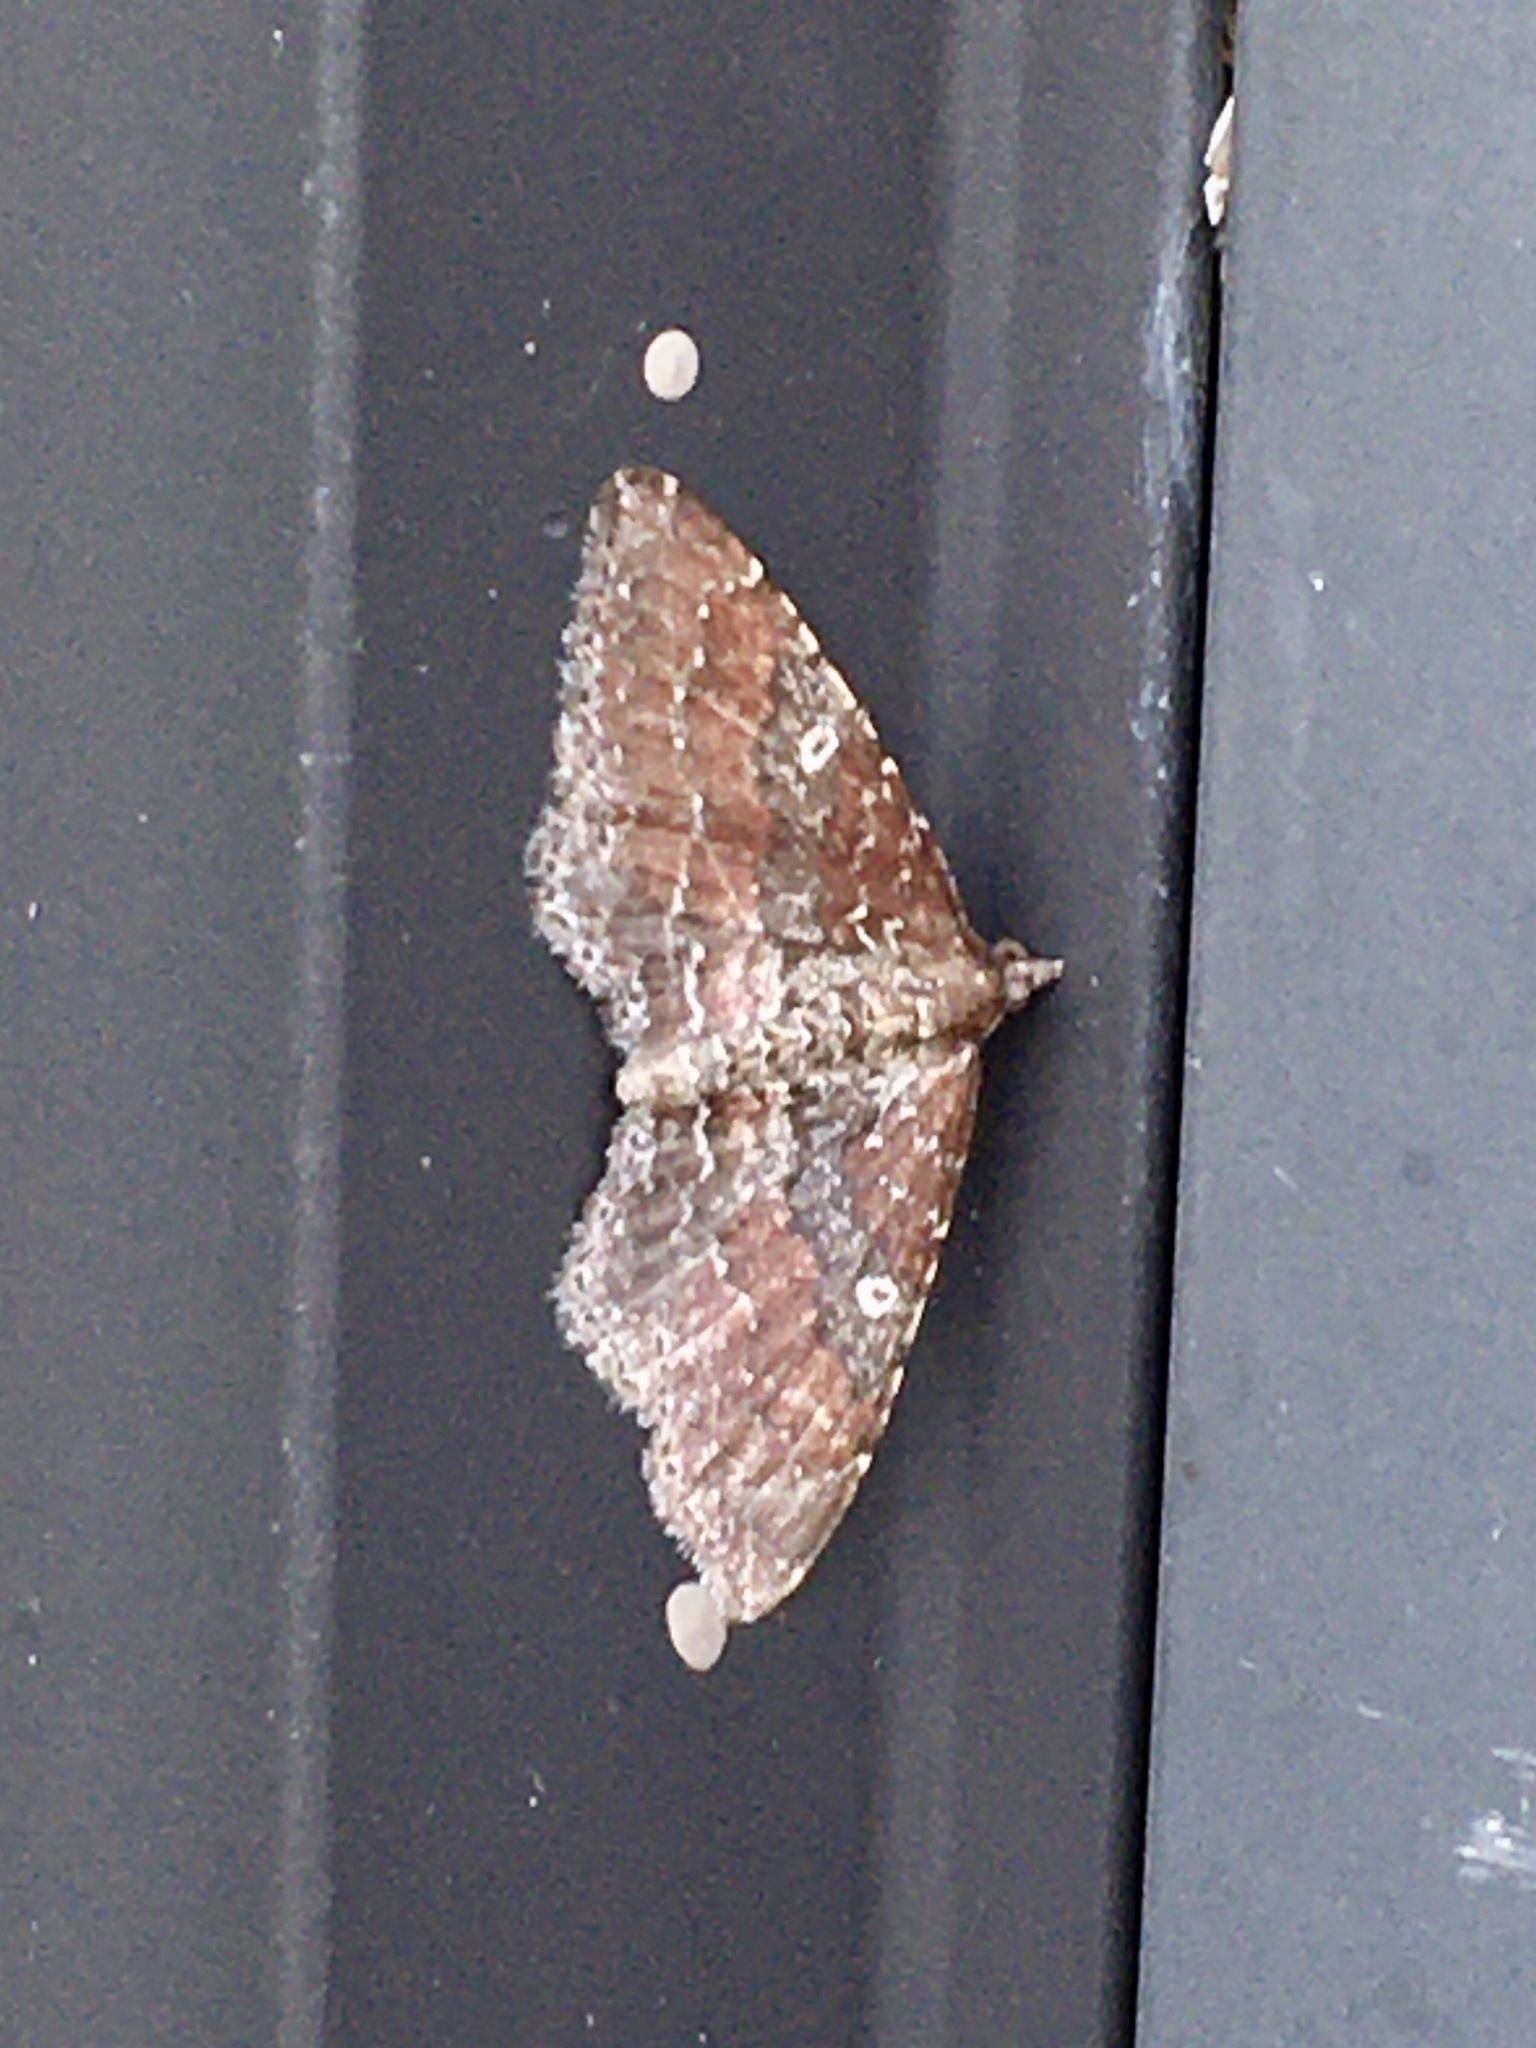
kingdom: Animalia
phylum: Arthropoda
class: Insecta
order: Lepidoptera
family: Geometridae
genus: Orthonama
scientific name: Orthonama obstipata
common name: The gem
